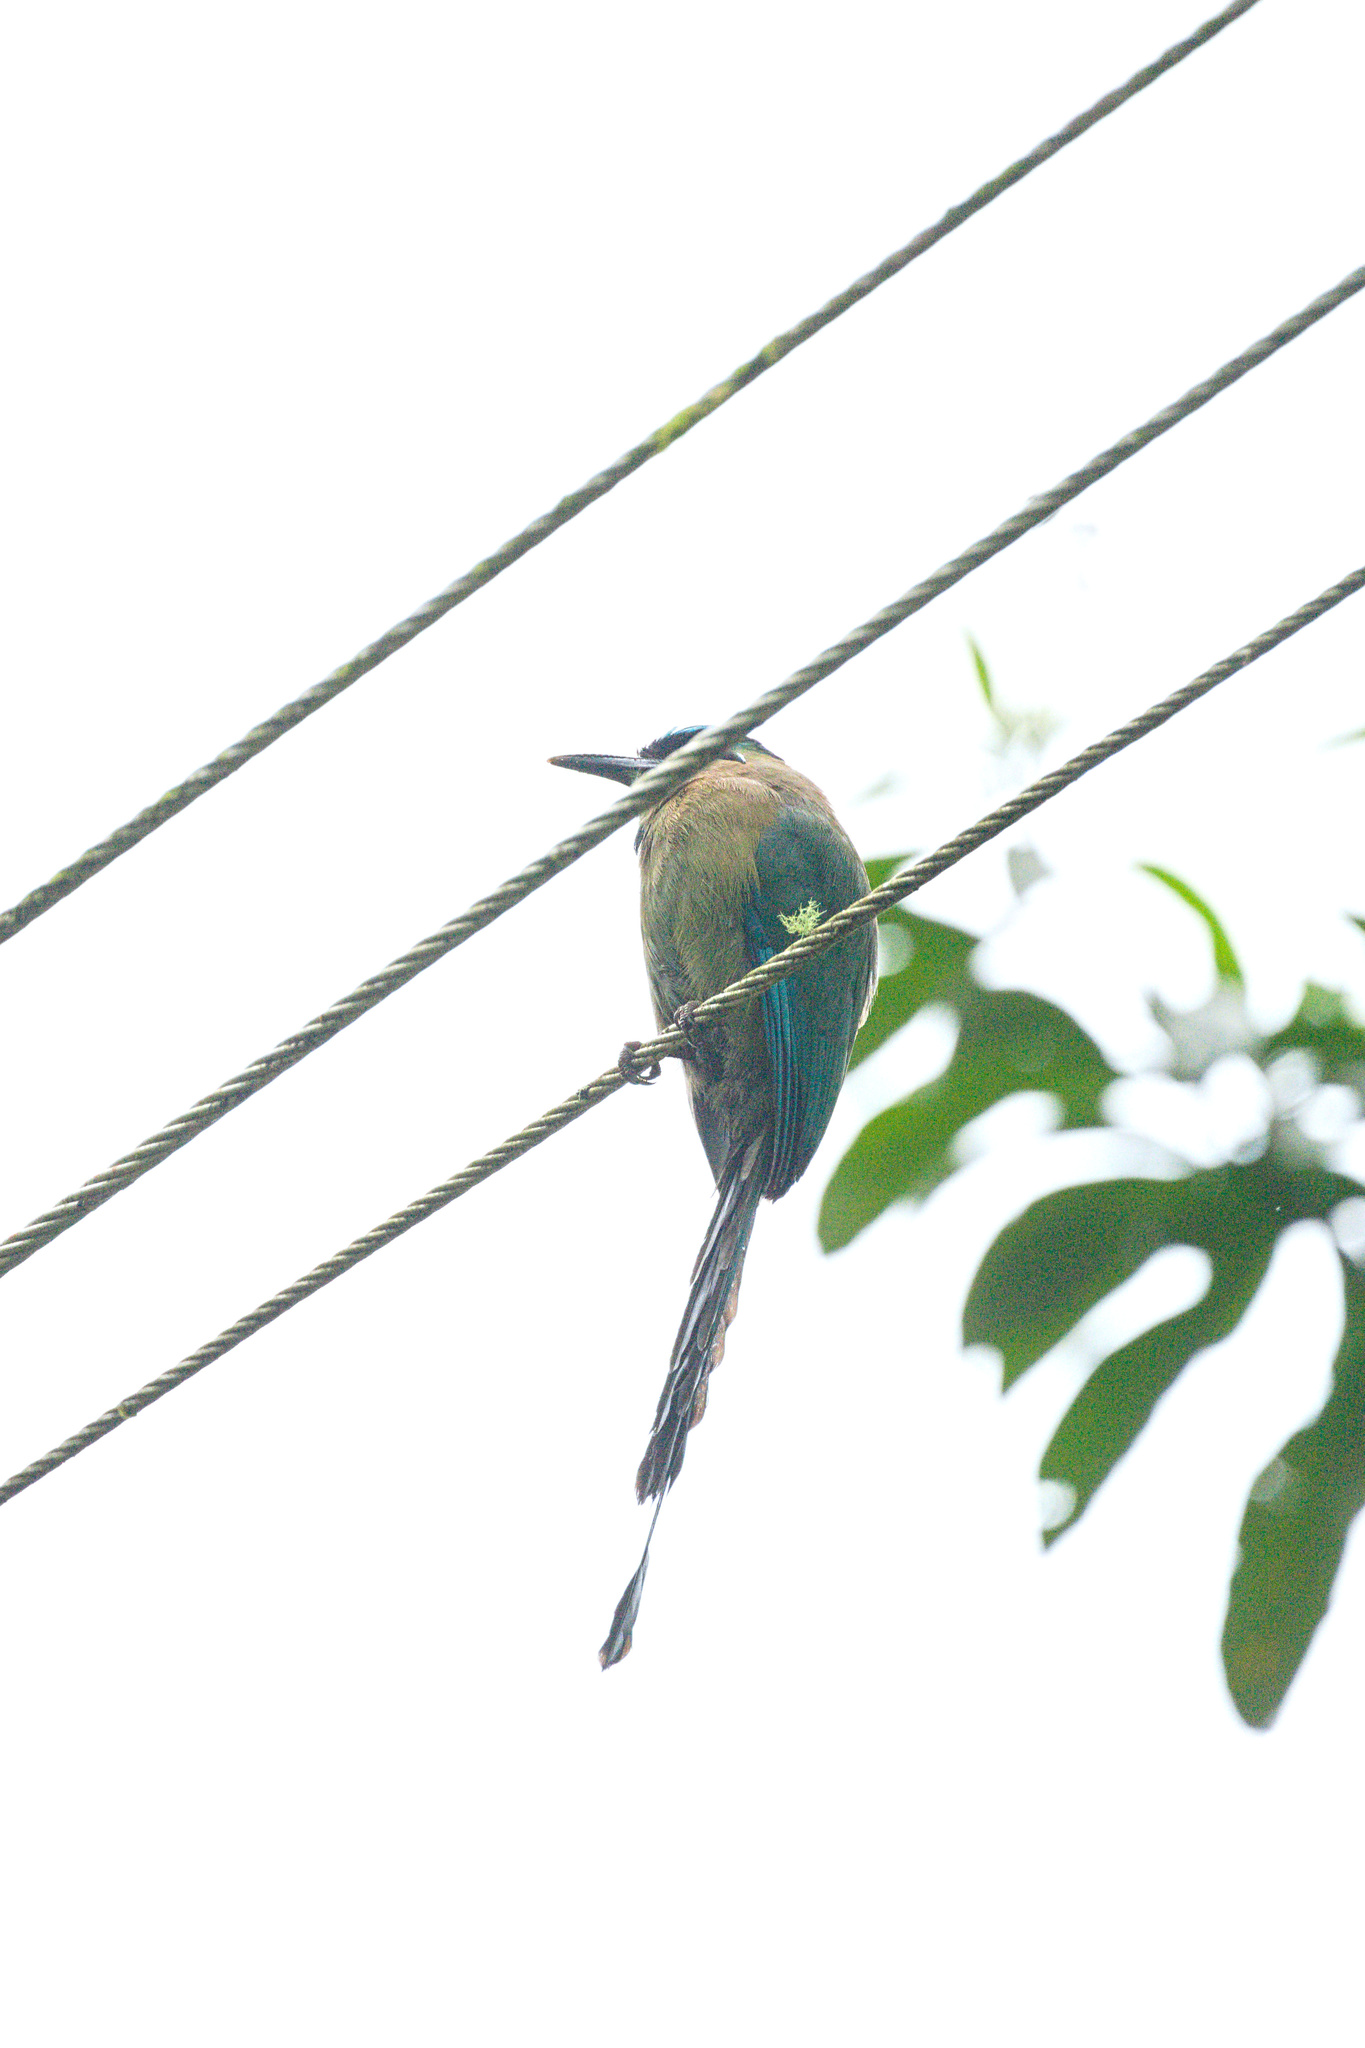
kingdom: Animalia
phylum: Chordata
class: Aves
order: Coraciiformes
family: Momotidae
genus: Momotus
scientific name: Momotus lessonii
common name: Lesson's motmot
